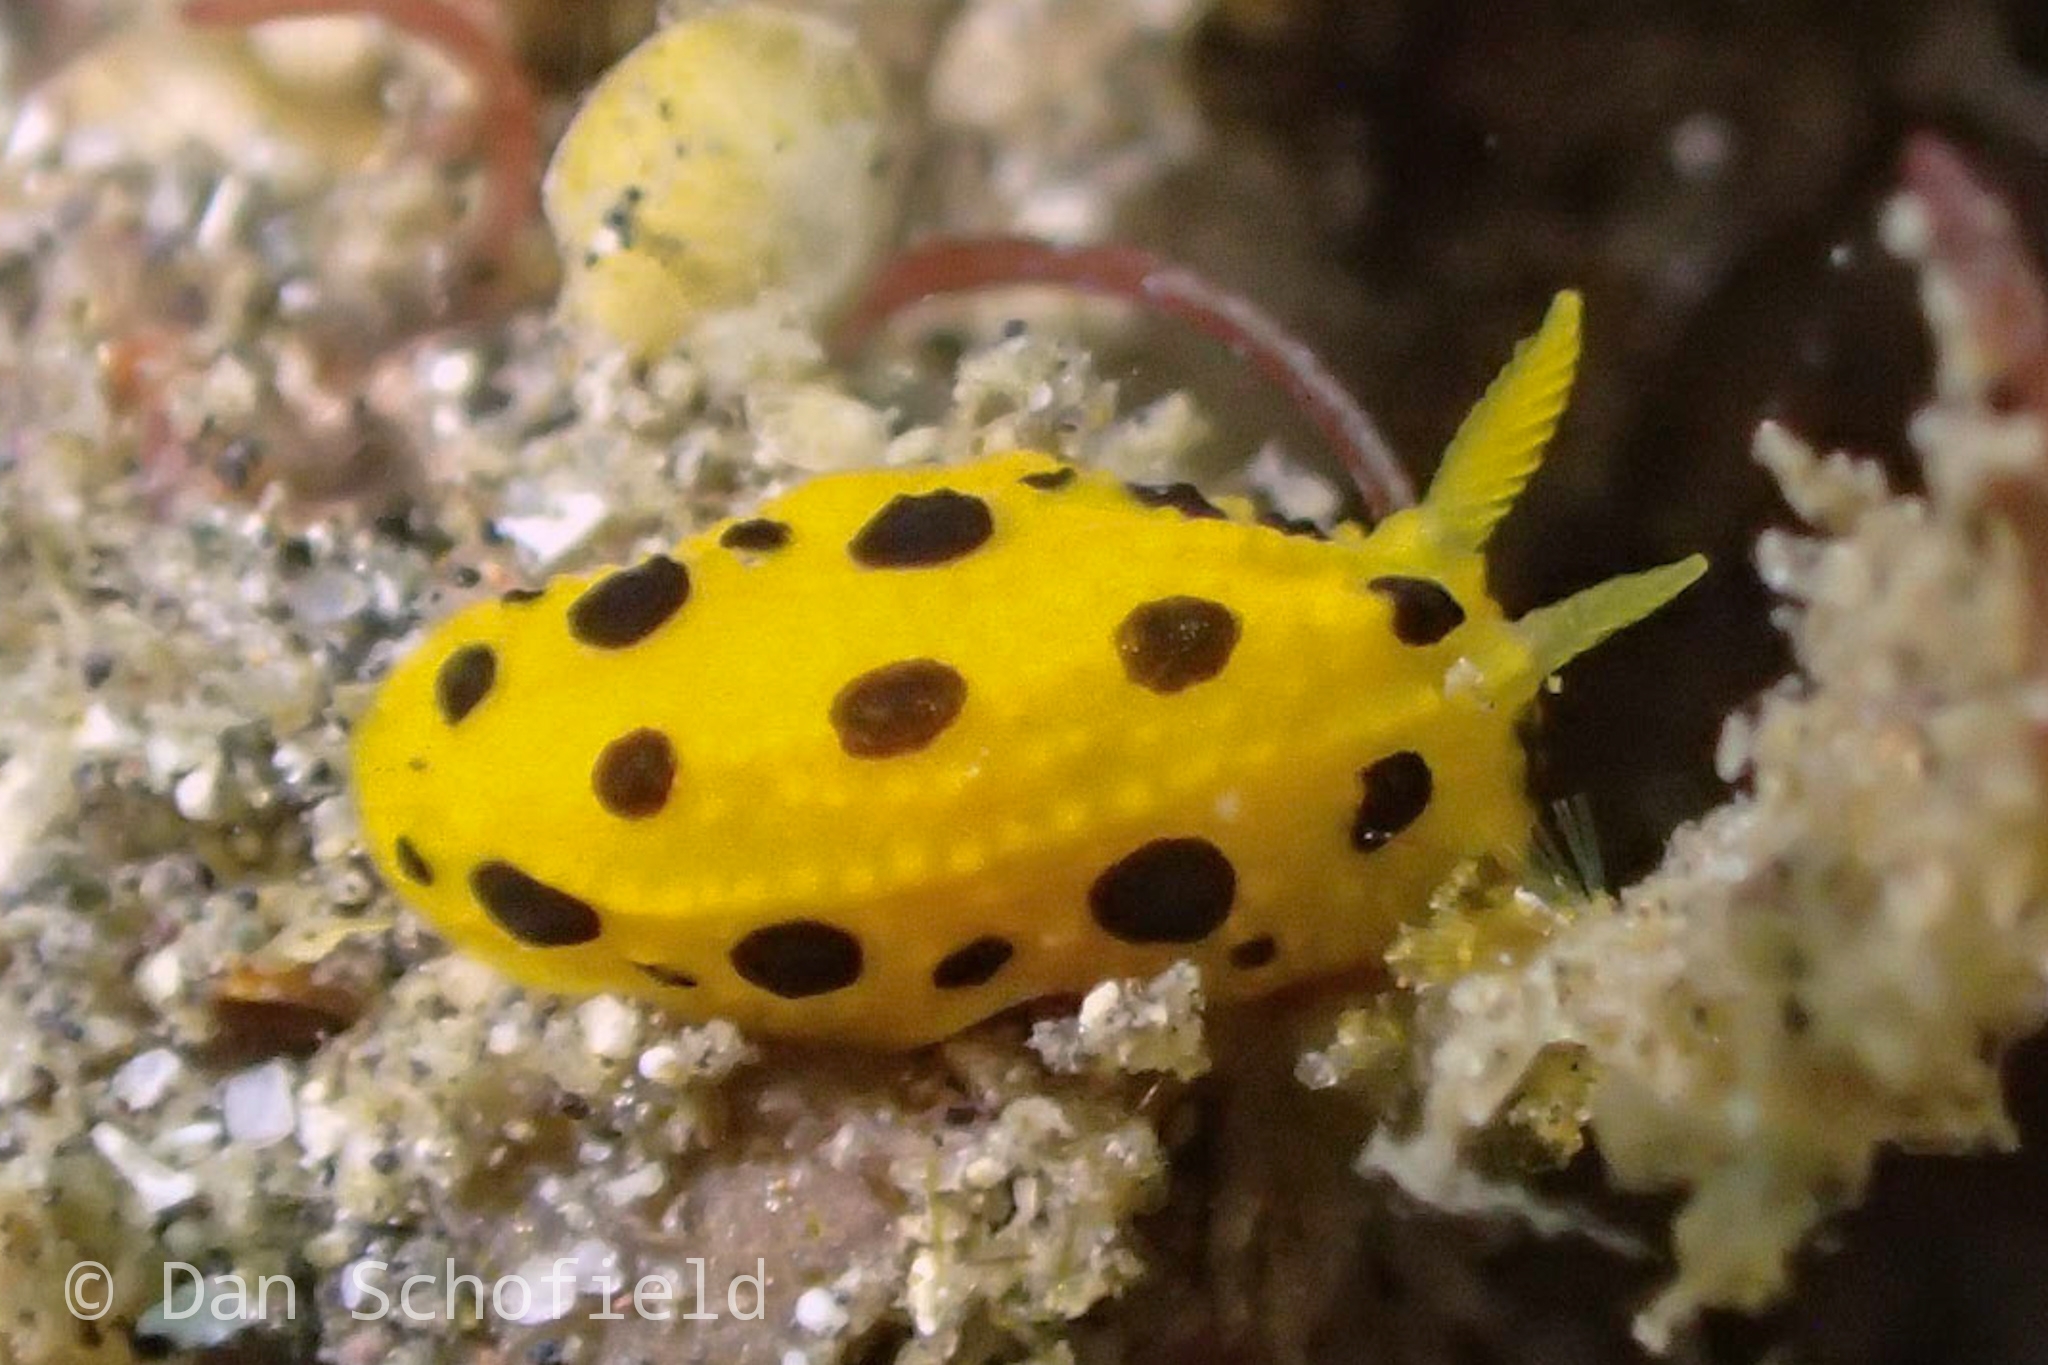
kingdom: Animalia
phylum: Mollusca
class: Gastropoda
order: Nudibranchia
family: Phyllidiidae
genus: Phyllidia
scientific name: Phyllidia polkadotsa
